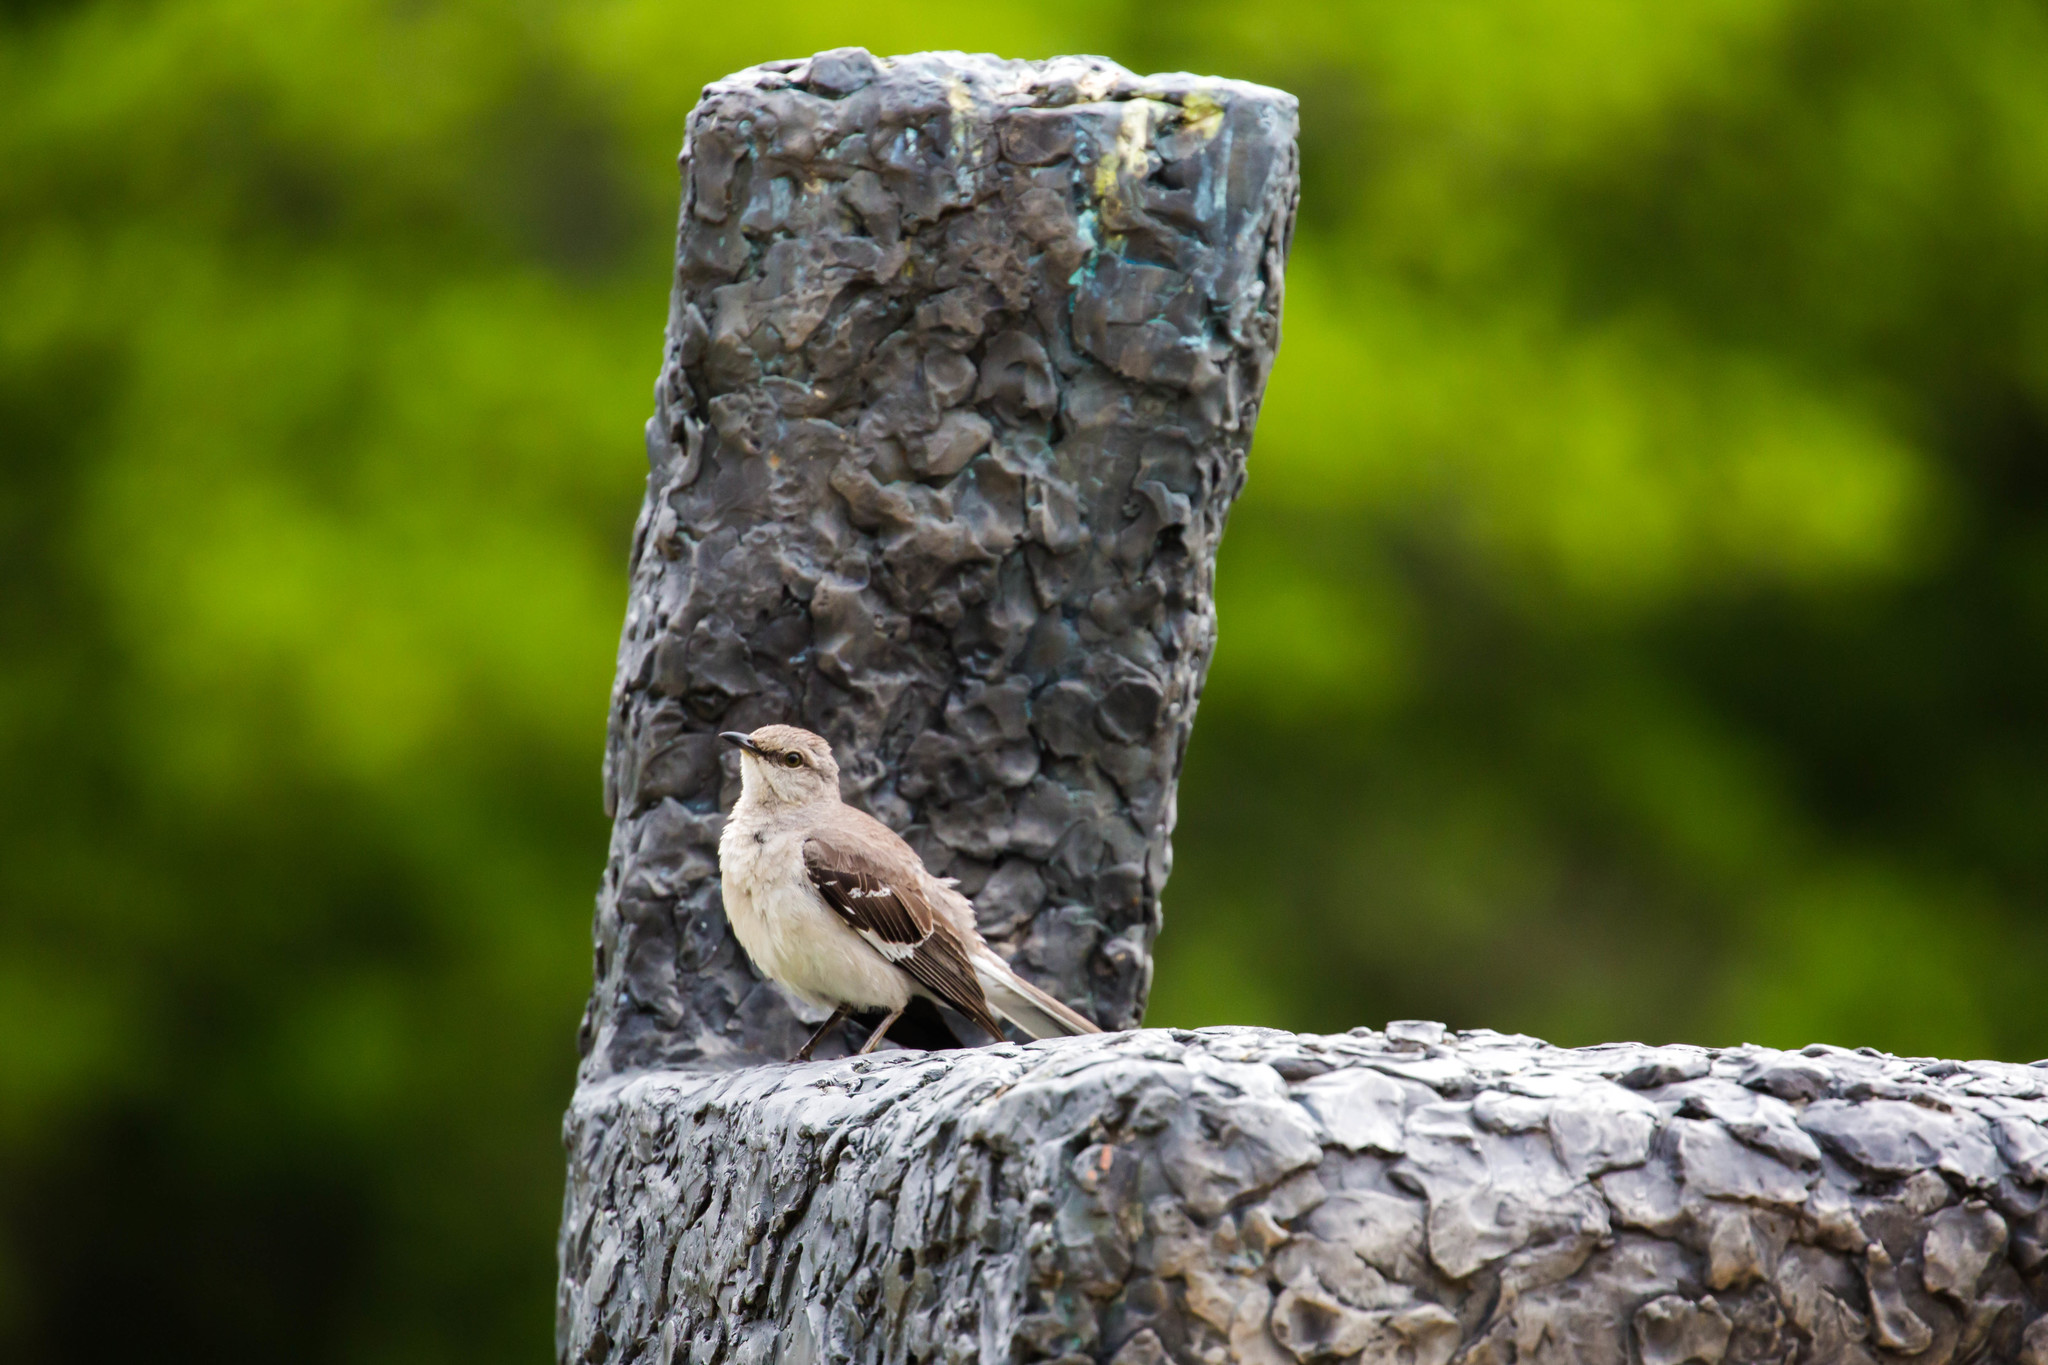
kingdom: Animalia
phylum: Chordata
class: Aves
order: Passeriformes
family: Mimidae
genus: Mimus
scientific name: Mimus polyglottos
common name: Northern mockingbird
